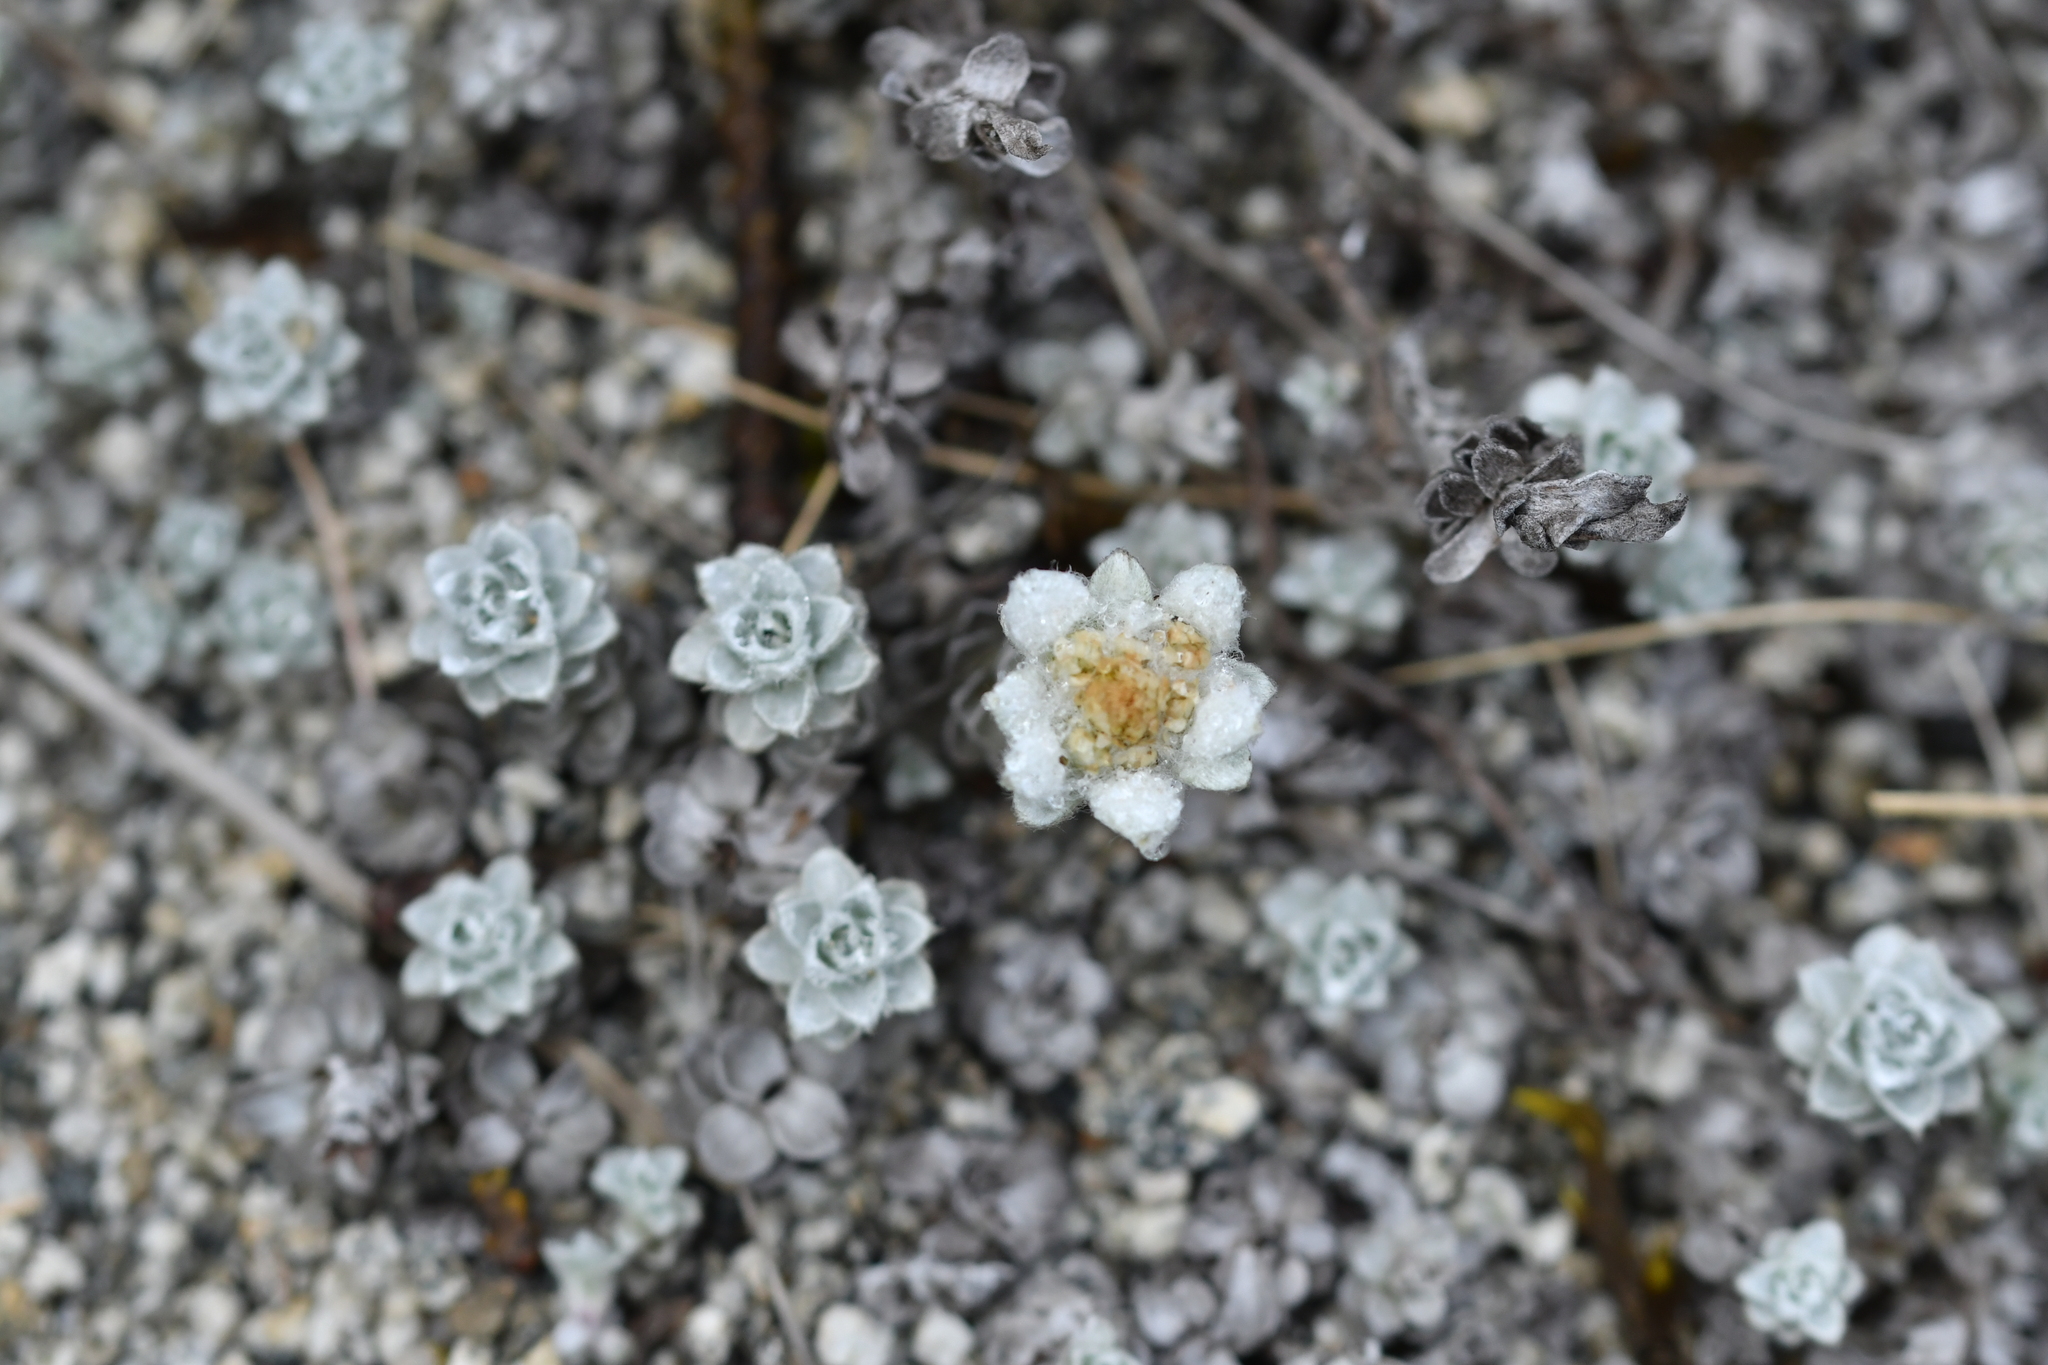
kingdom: Plantae
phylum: Tracheophyta
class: Magnoliopsida
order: Asterales
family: Asteraceae
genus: Leucogenes
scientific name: Leucogenes grandiceps
